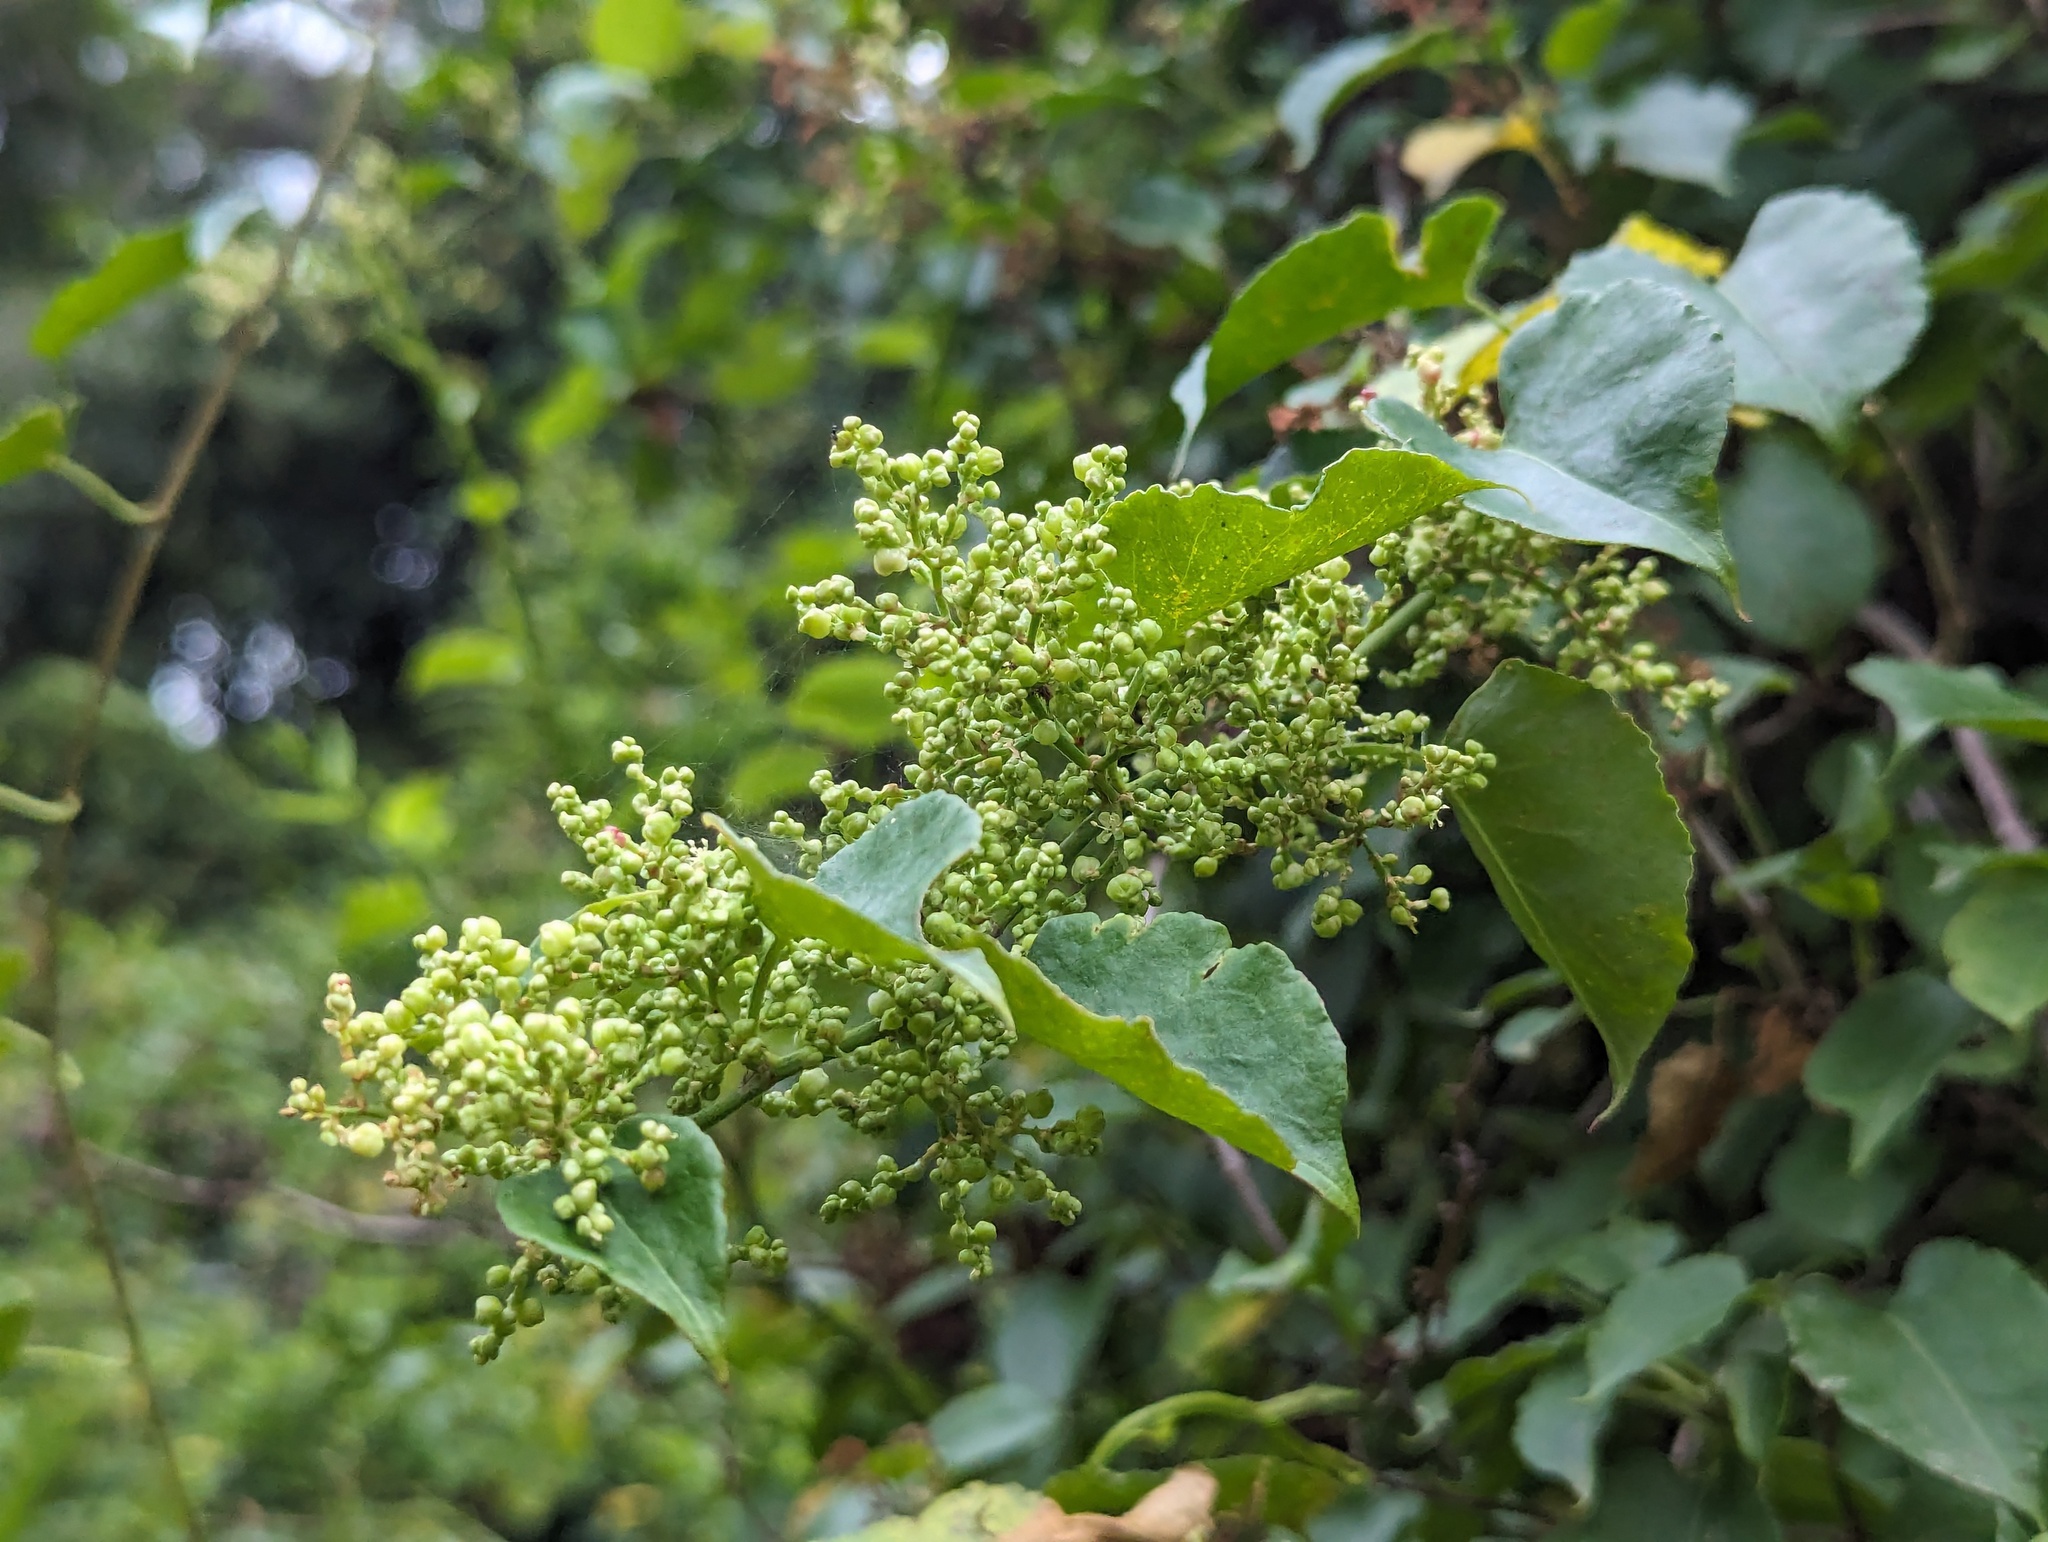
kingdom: Plantae
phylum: Tracheophyta
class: Magnoliopsida
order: Caryophyllales
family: Polygonaceae
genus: Muehlenbeckia
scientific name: Muehlenbeckia australis
